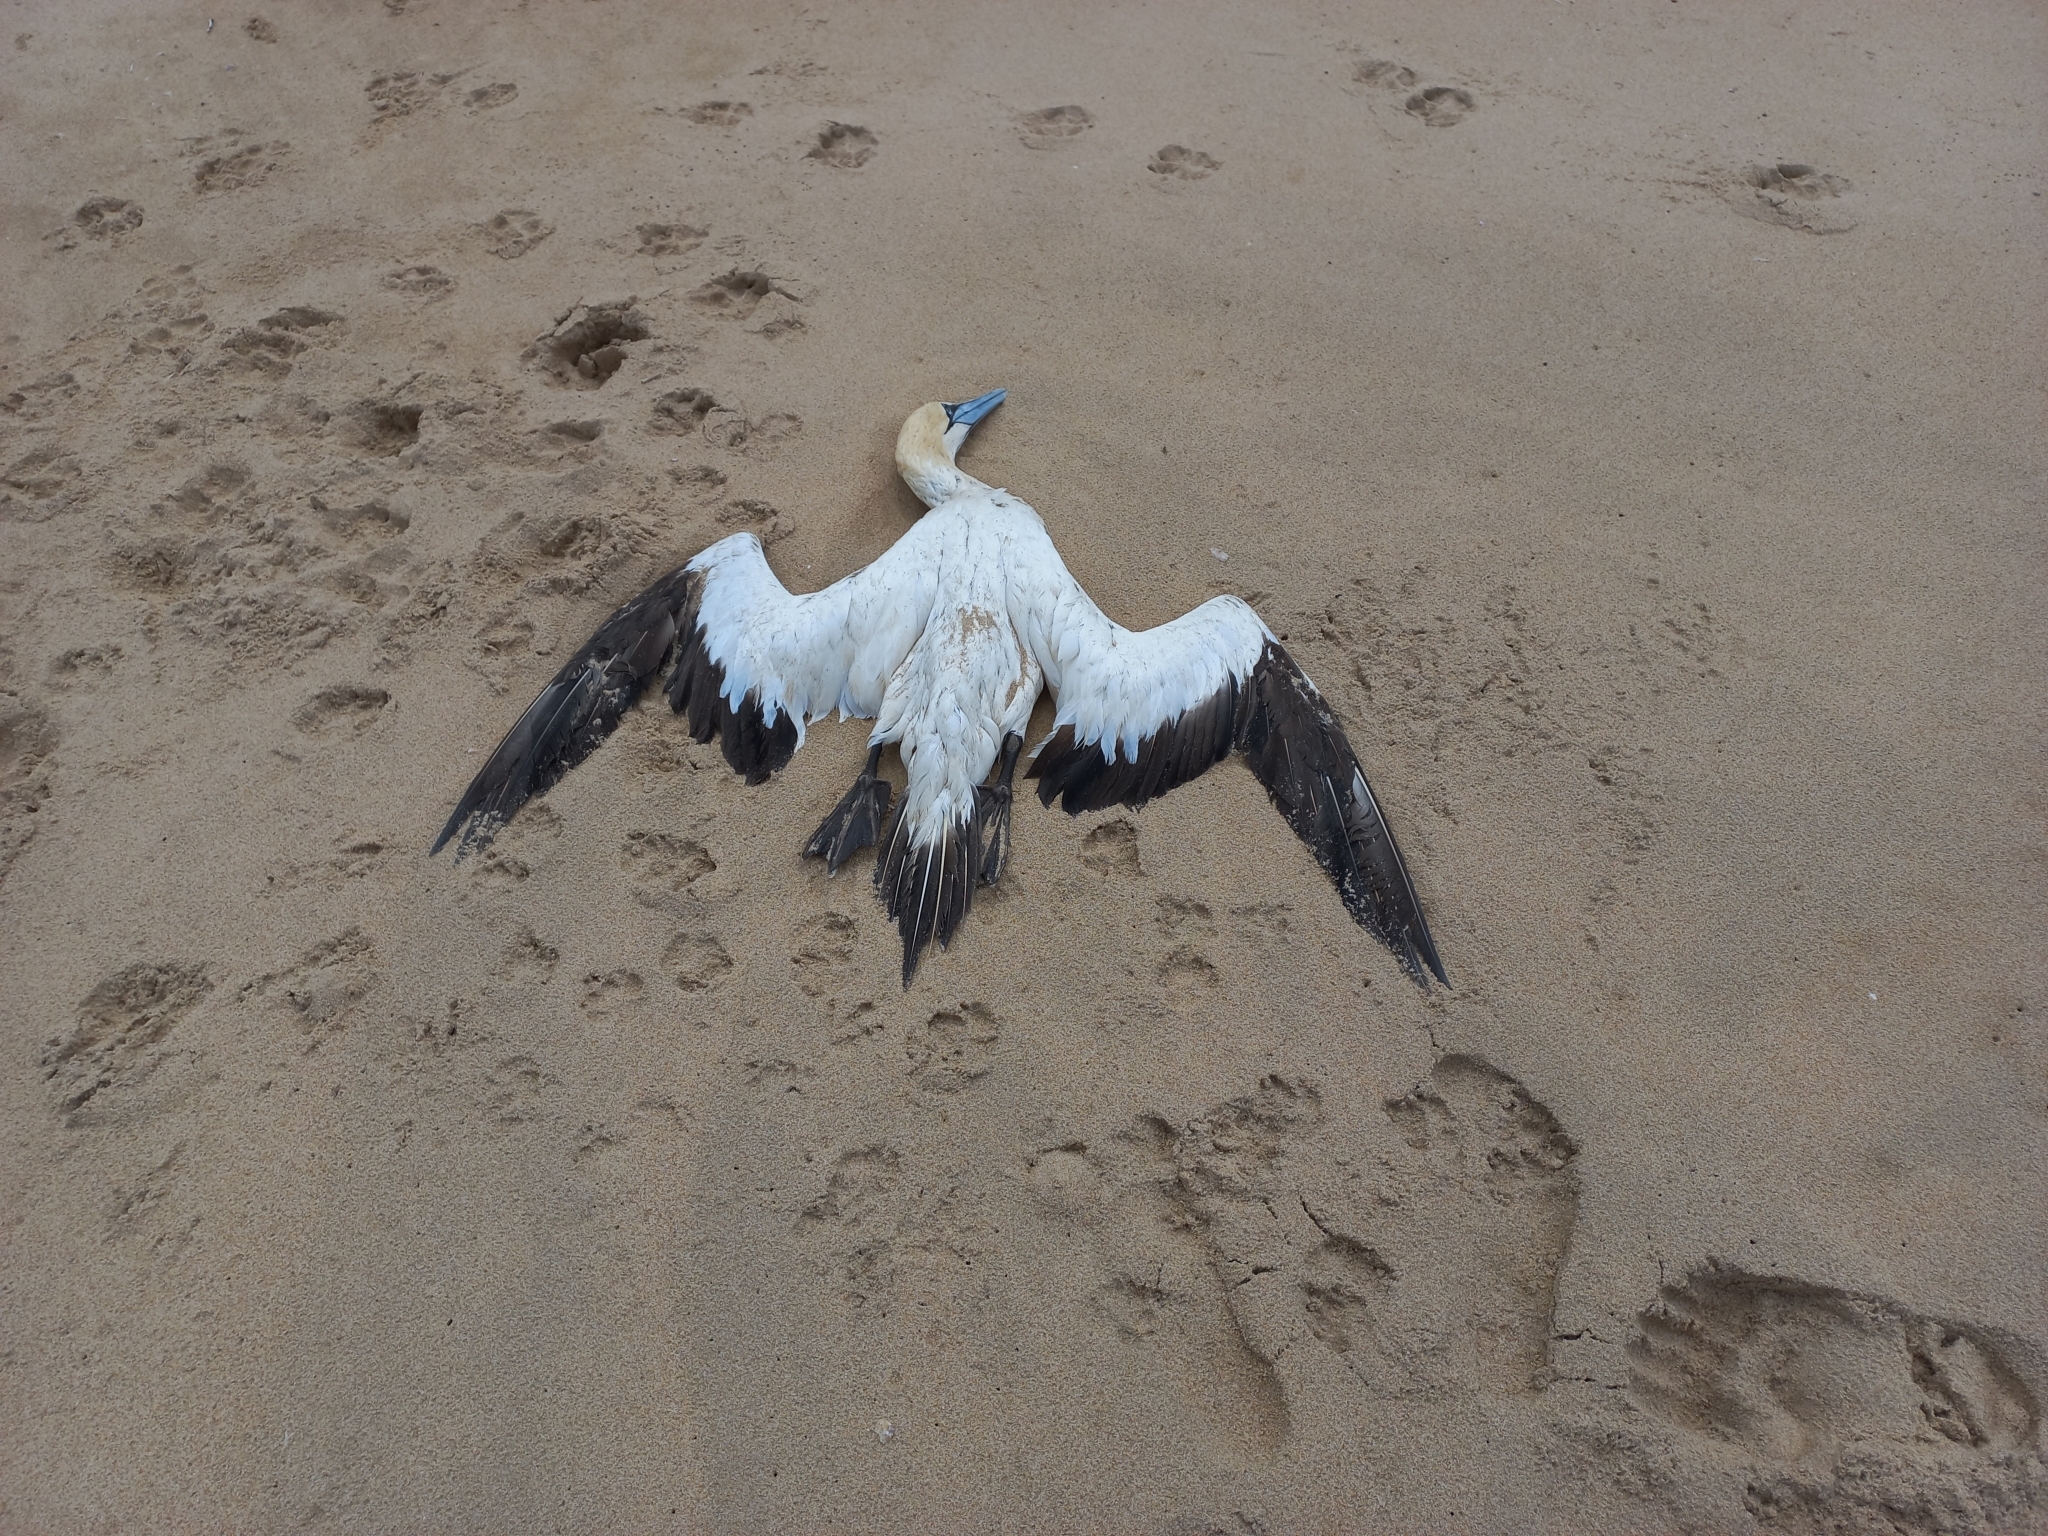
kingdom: Animalia
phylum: Chordata
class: Aves
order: Suliformes
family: Sulidae
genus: Morus
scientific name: Morus capensis
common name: Cape gannet
